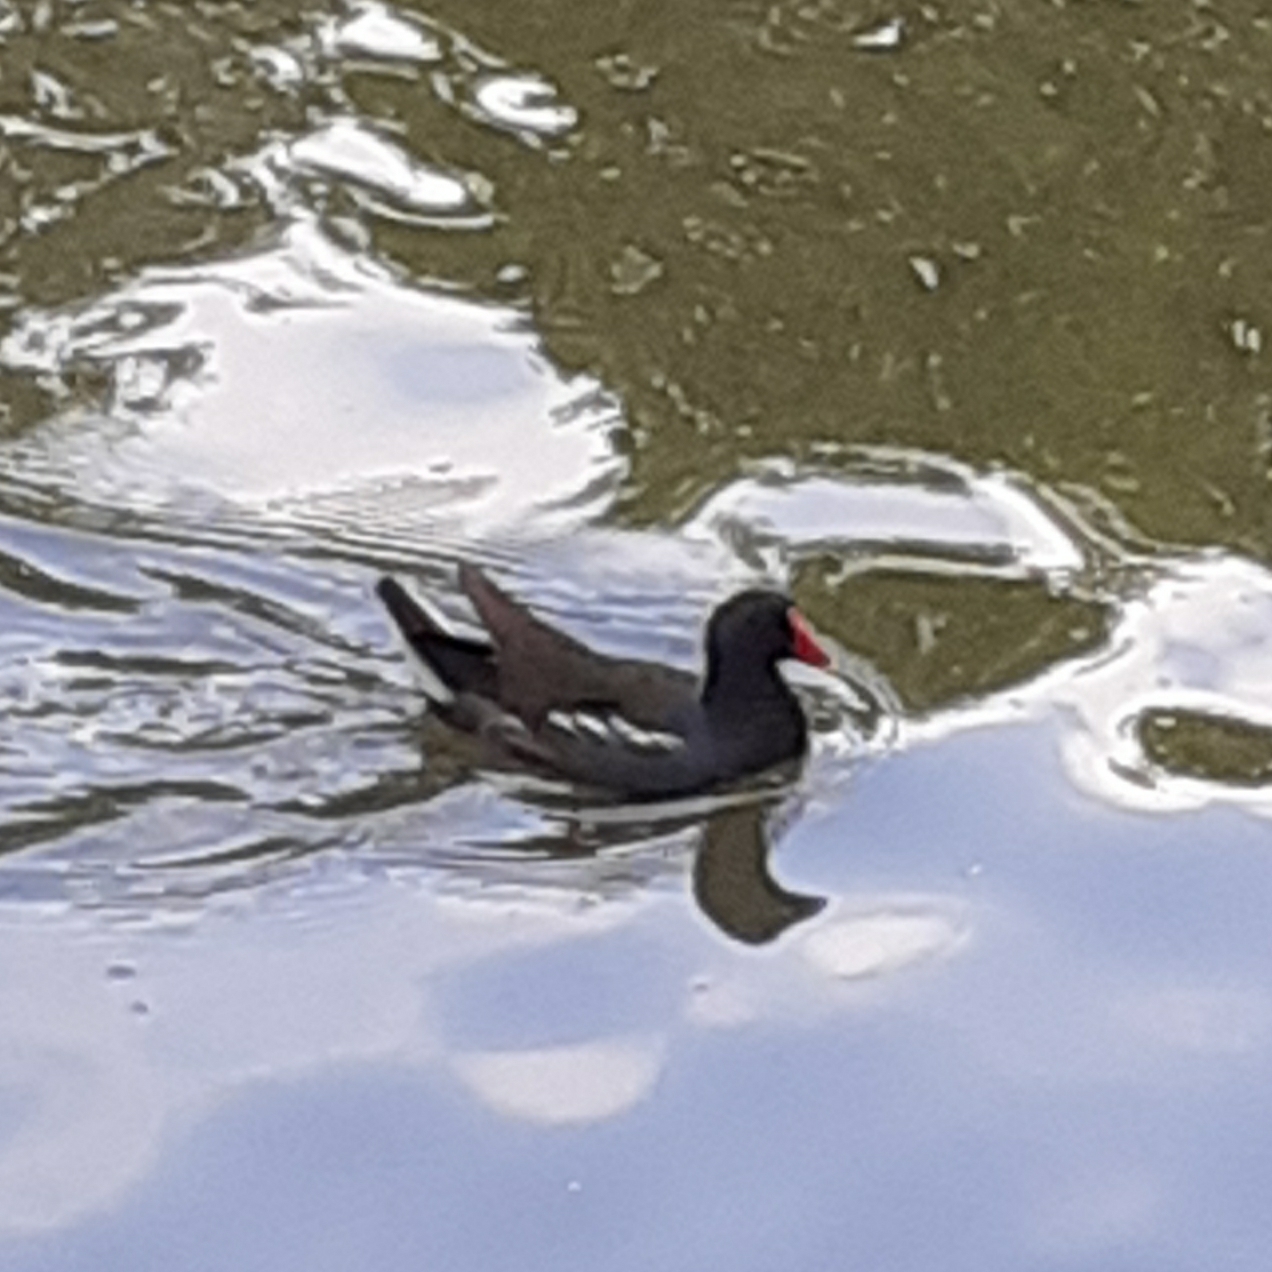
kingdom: Animalia
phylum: Chordata
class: Aves
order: Gruiformes
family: Rallidae
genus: Gallinula
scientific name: Gallinula chloropus
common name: Common moorhen
